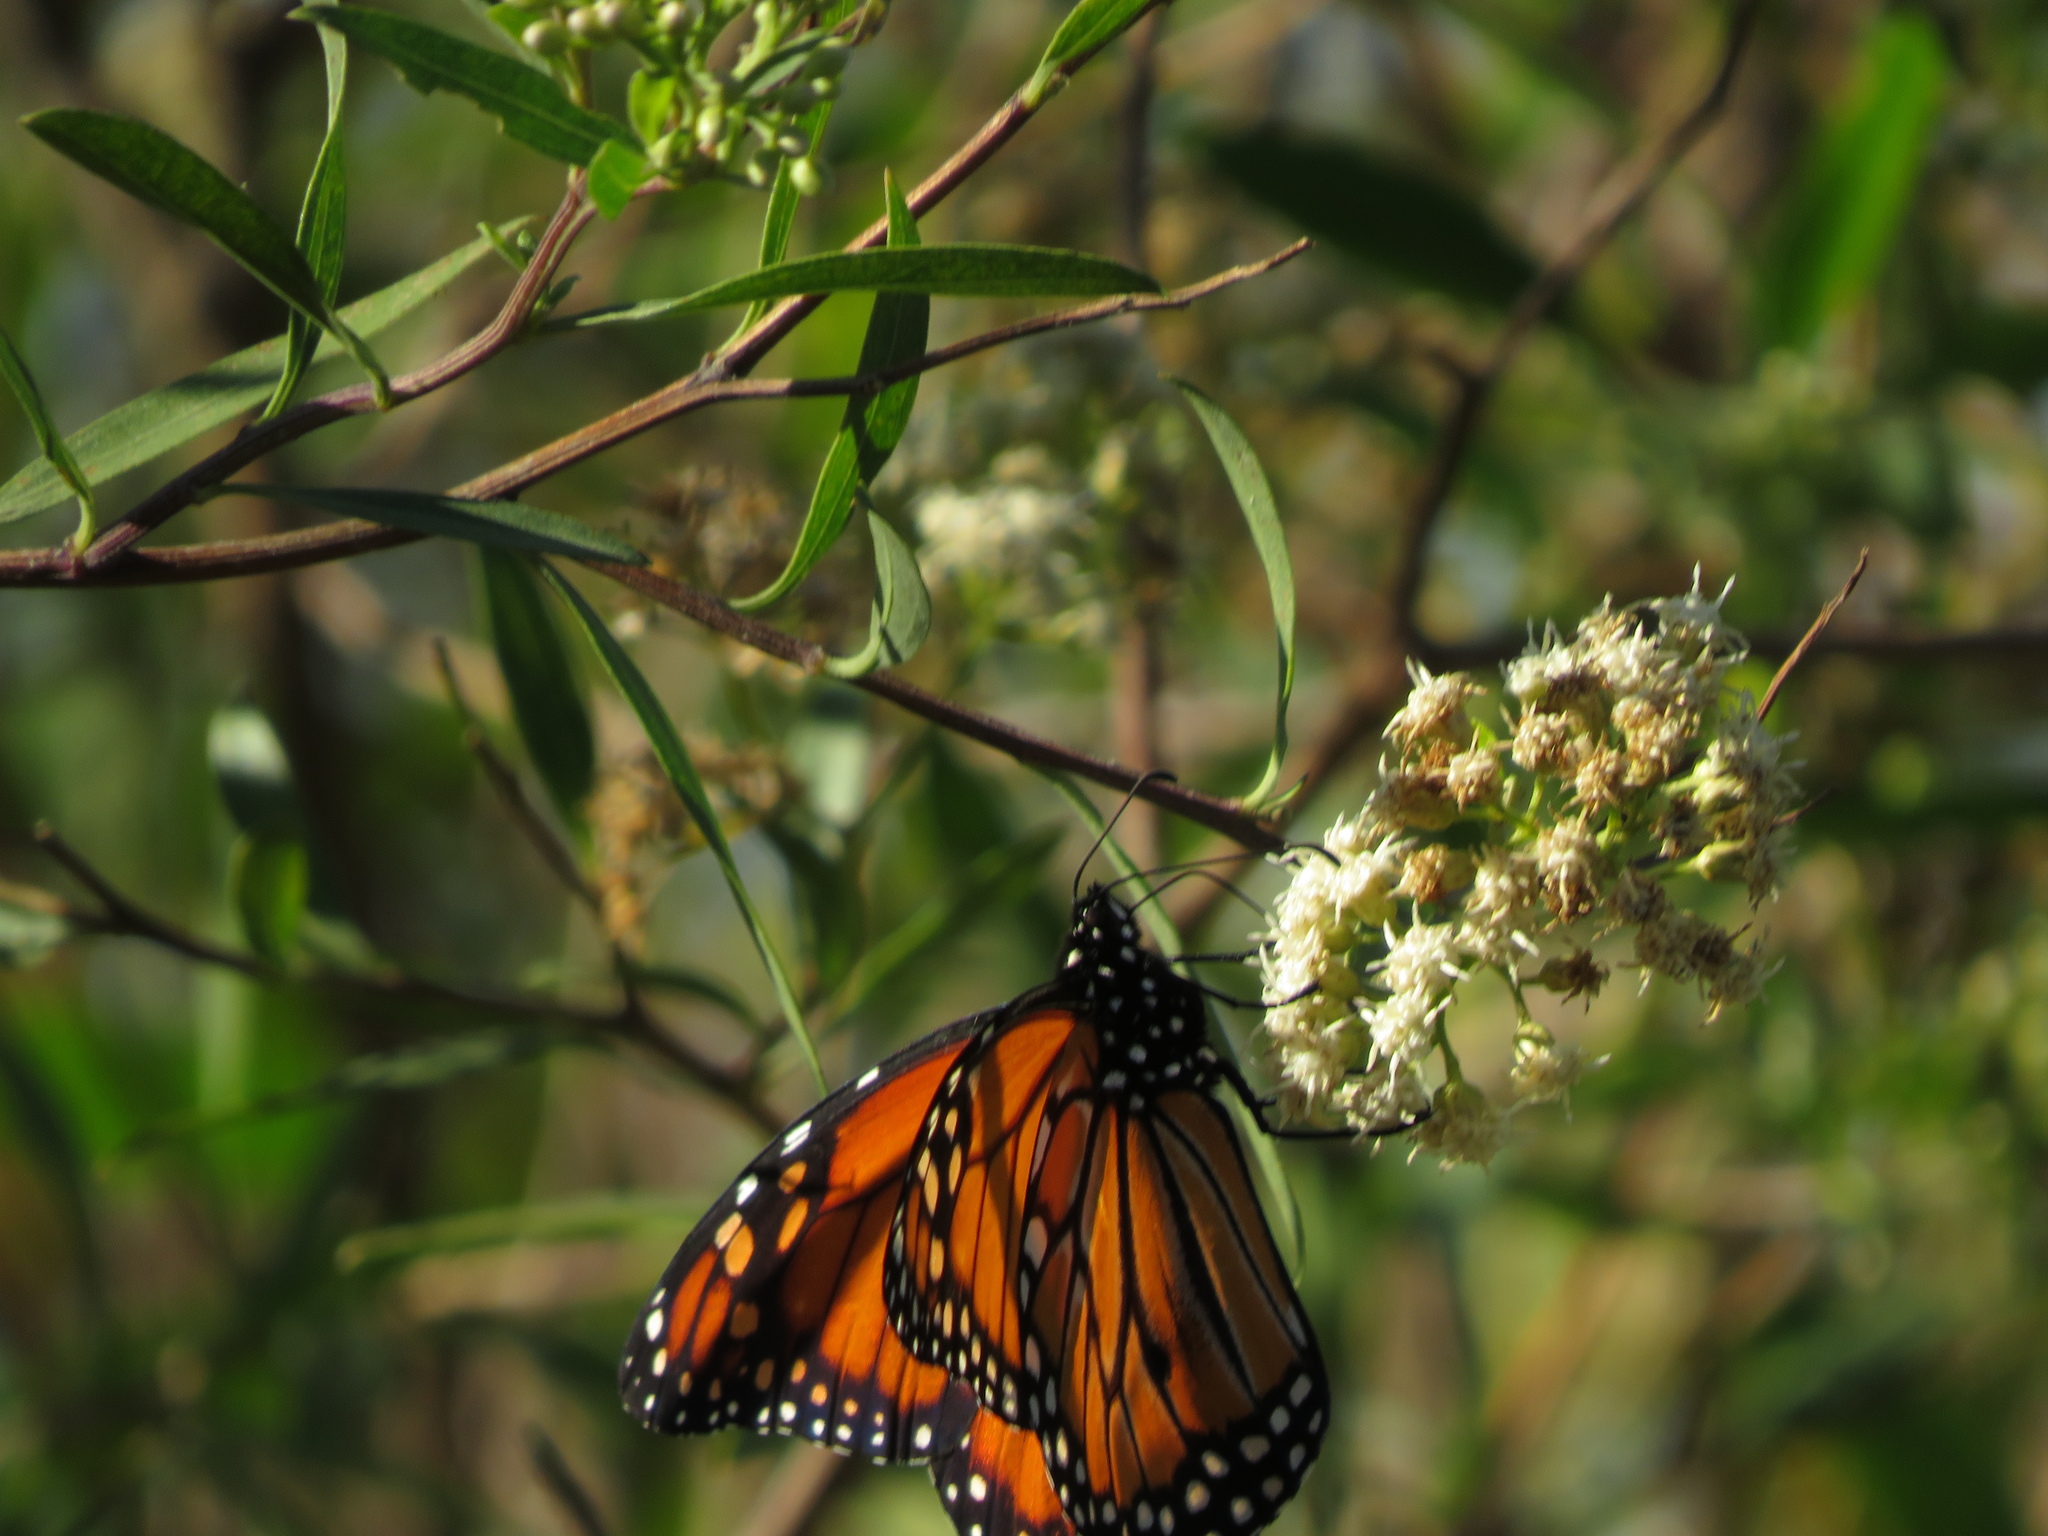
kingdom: Animalia
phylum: Arthropoda
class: Insecta
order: Lepidoptera
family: Nymphalidae
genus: Danaus
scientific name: Danaus erippus
